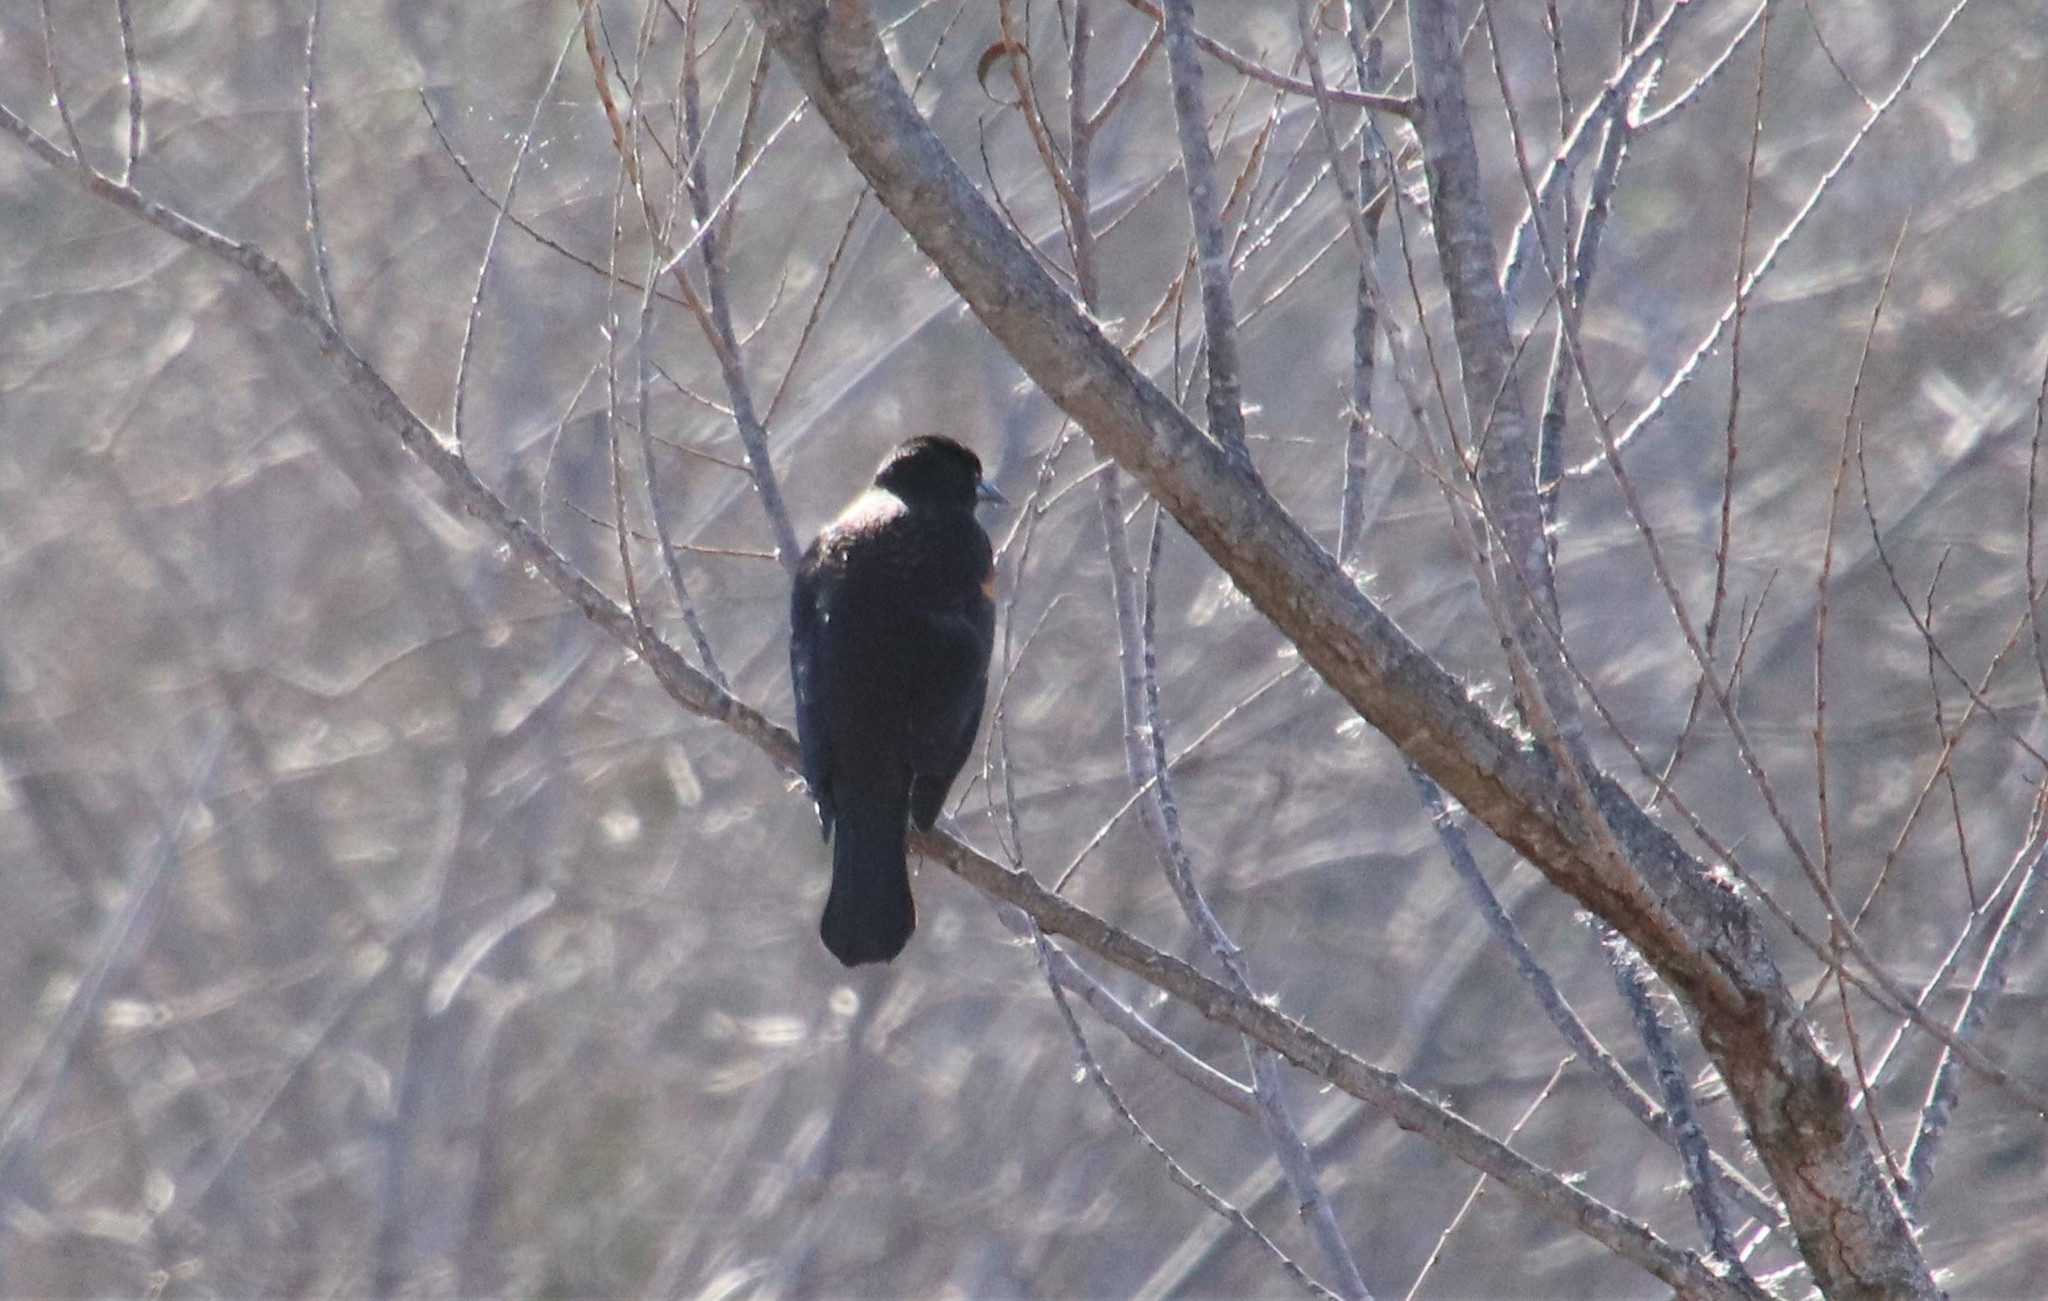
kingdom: Animalia
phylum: Chordata
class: Aves
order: Passeriformes
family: Icteridae
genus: Agelaius
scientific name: Agelaius phoeniceus
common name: Red-winged blackbird
